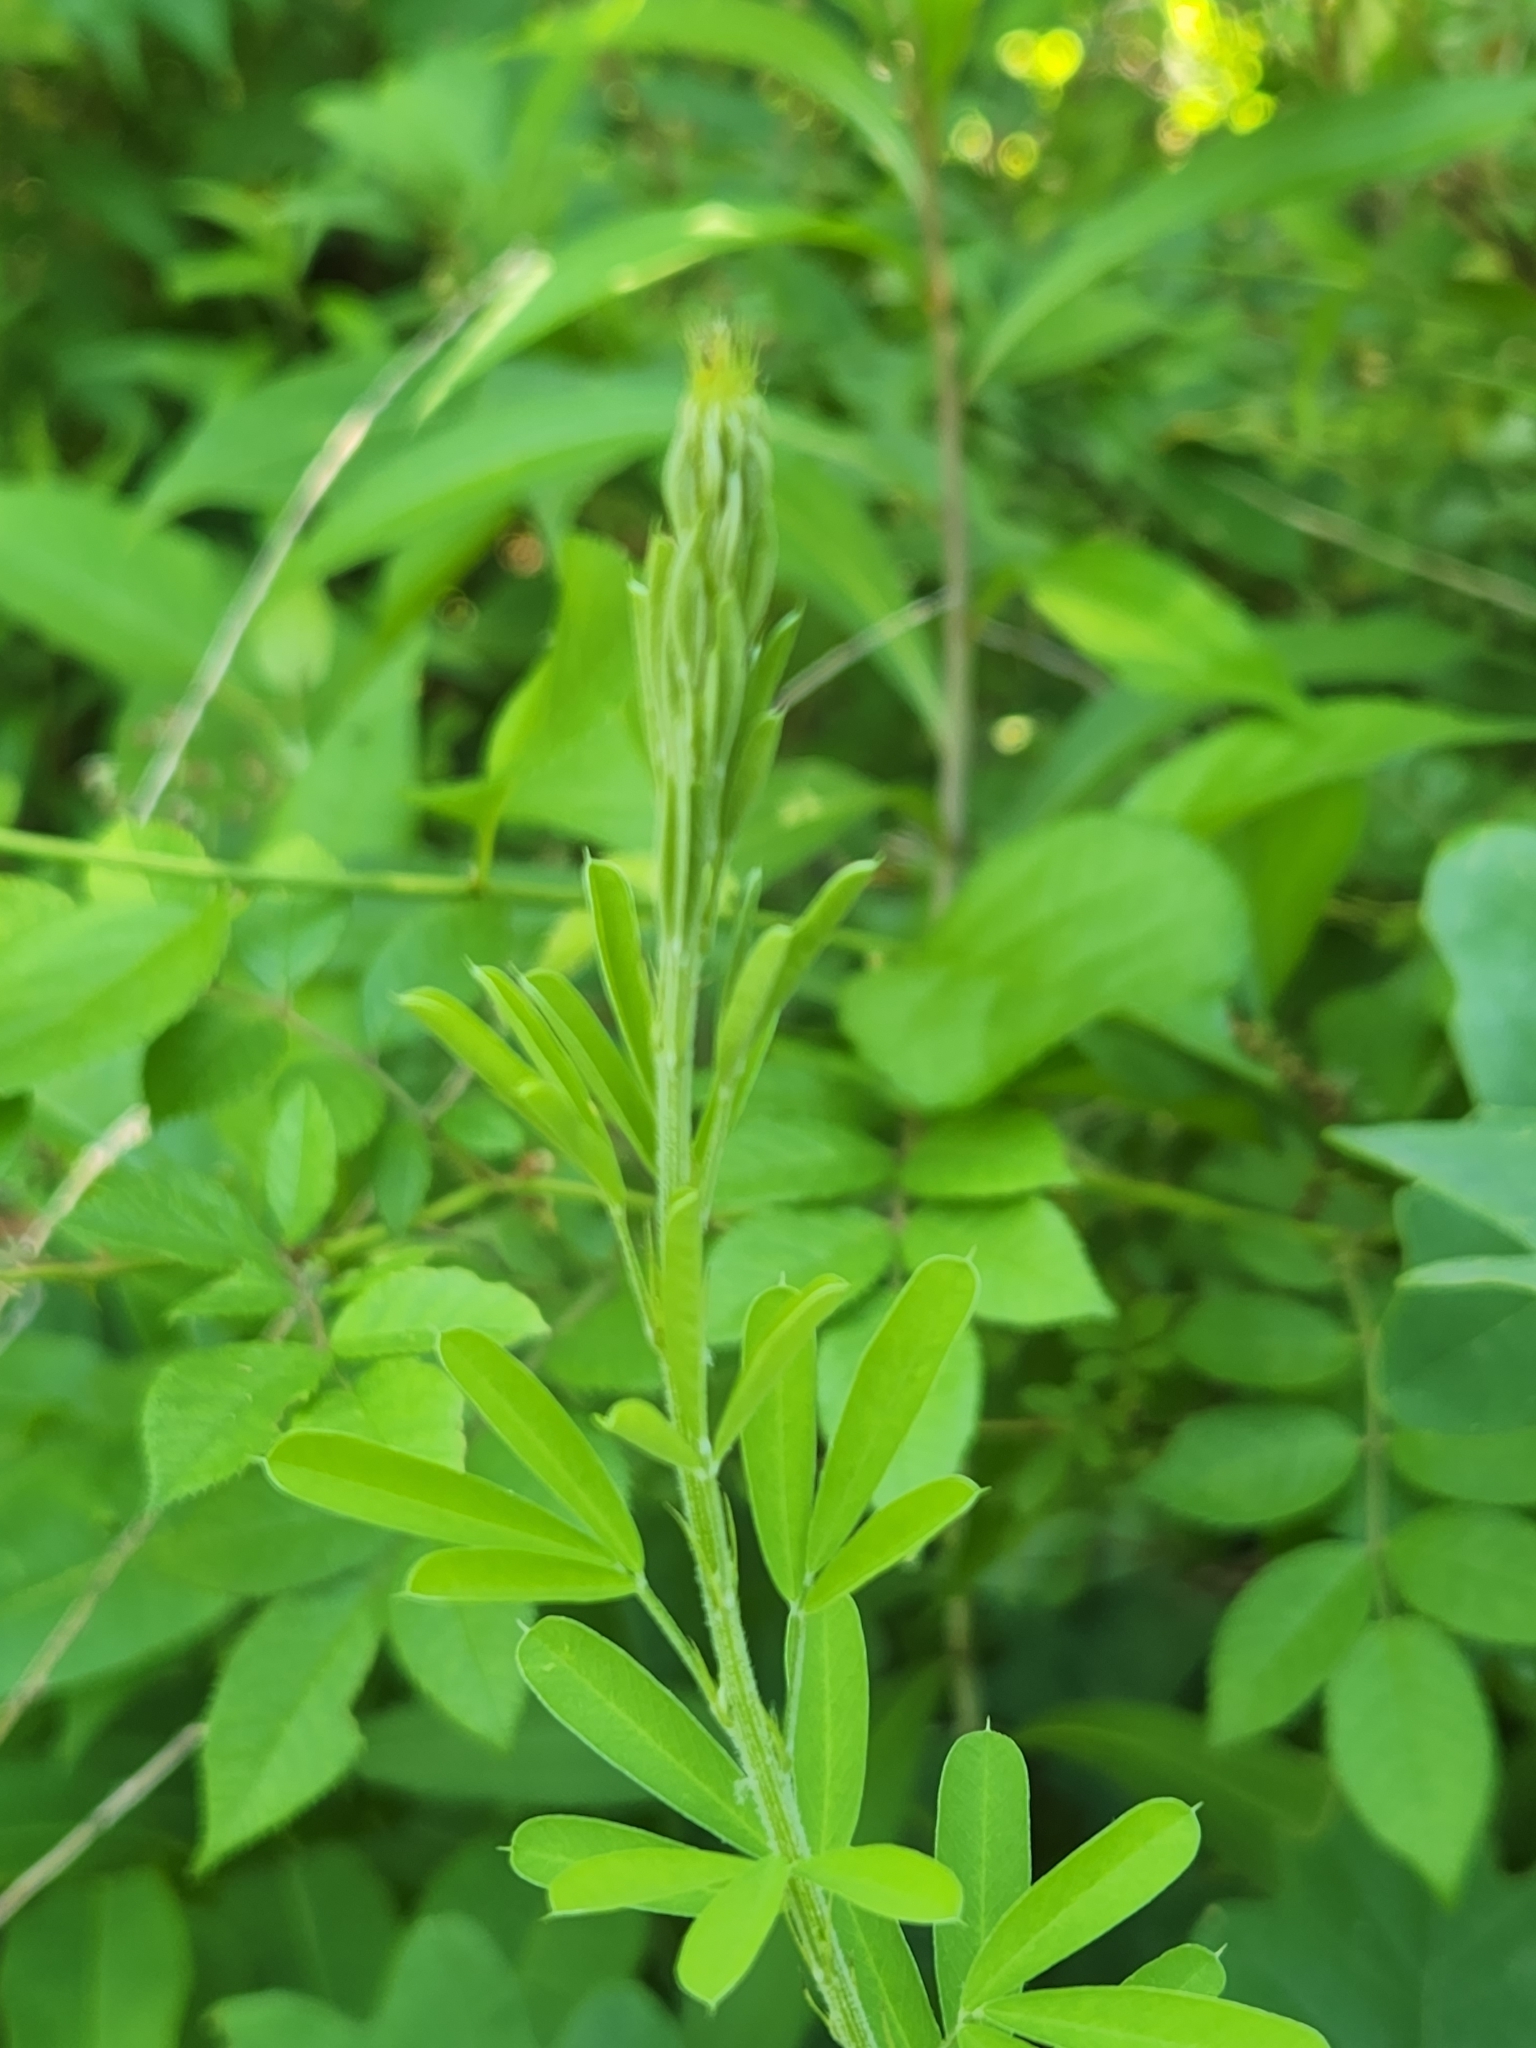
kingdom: Plantae
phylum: Tracheophyta
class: Magnoliopsida
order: Fabales
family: Fabaceae
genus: Lespedeza
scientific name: Lespedeza cuneata
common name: Chinese bush-clover
